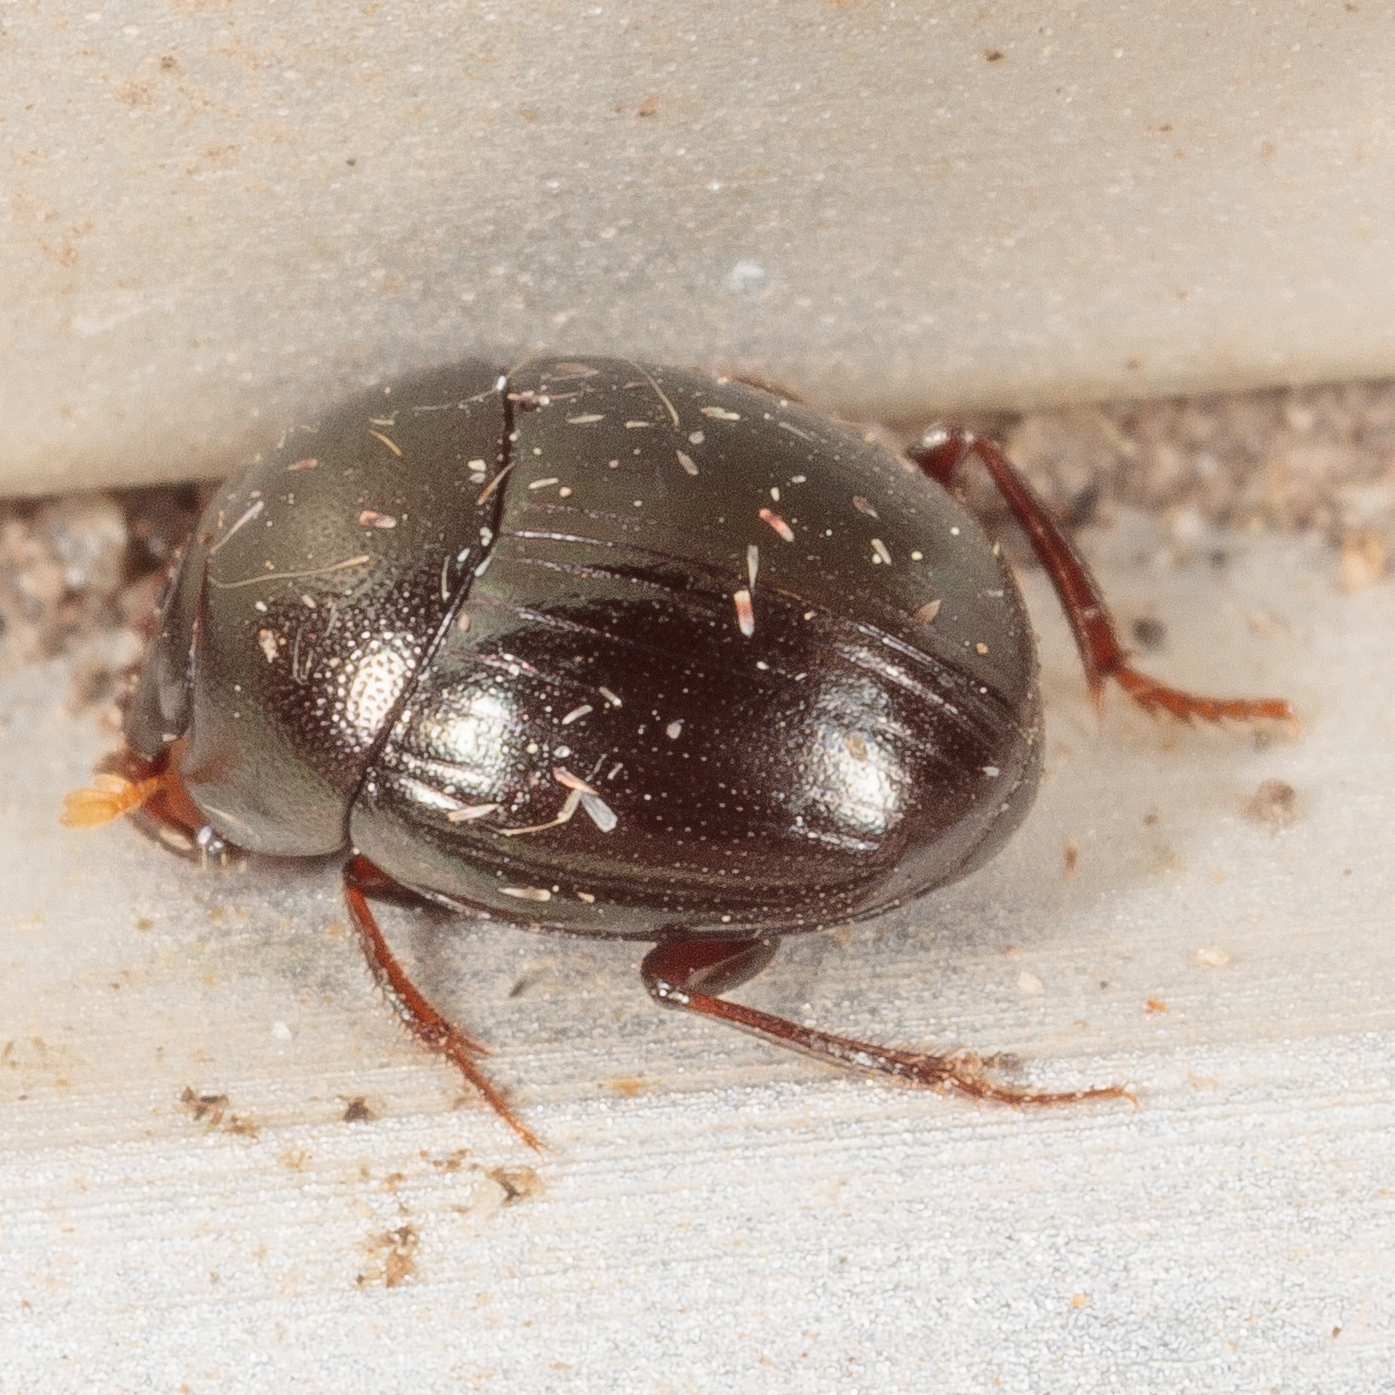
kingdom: Animalia
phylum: Arthropoda
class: Insecta
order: Coleoptera
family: Scarabaeidae
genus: Pseudocanthon
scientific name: Pseudocanthon perplexus
